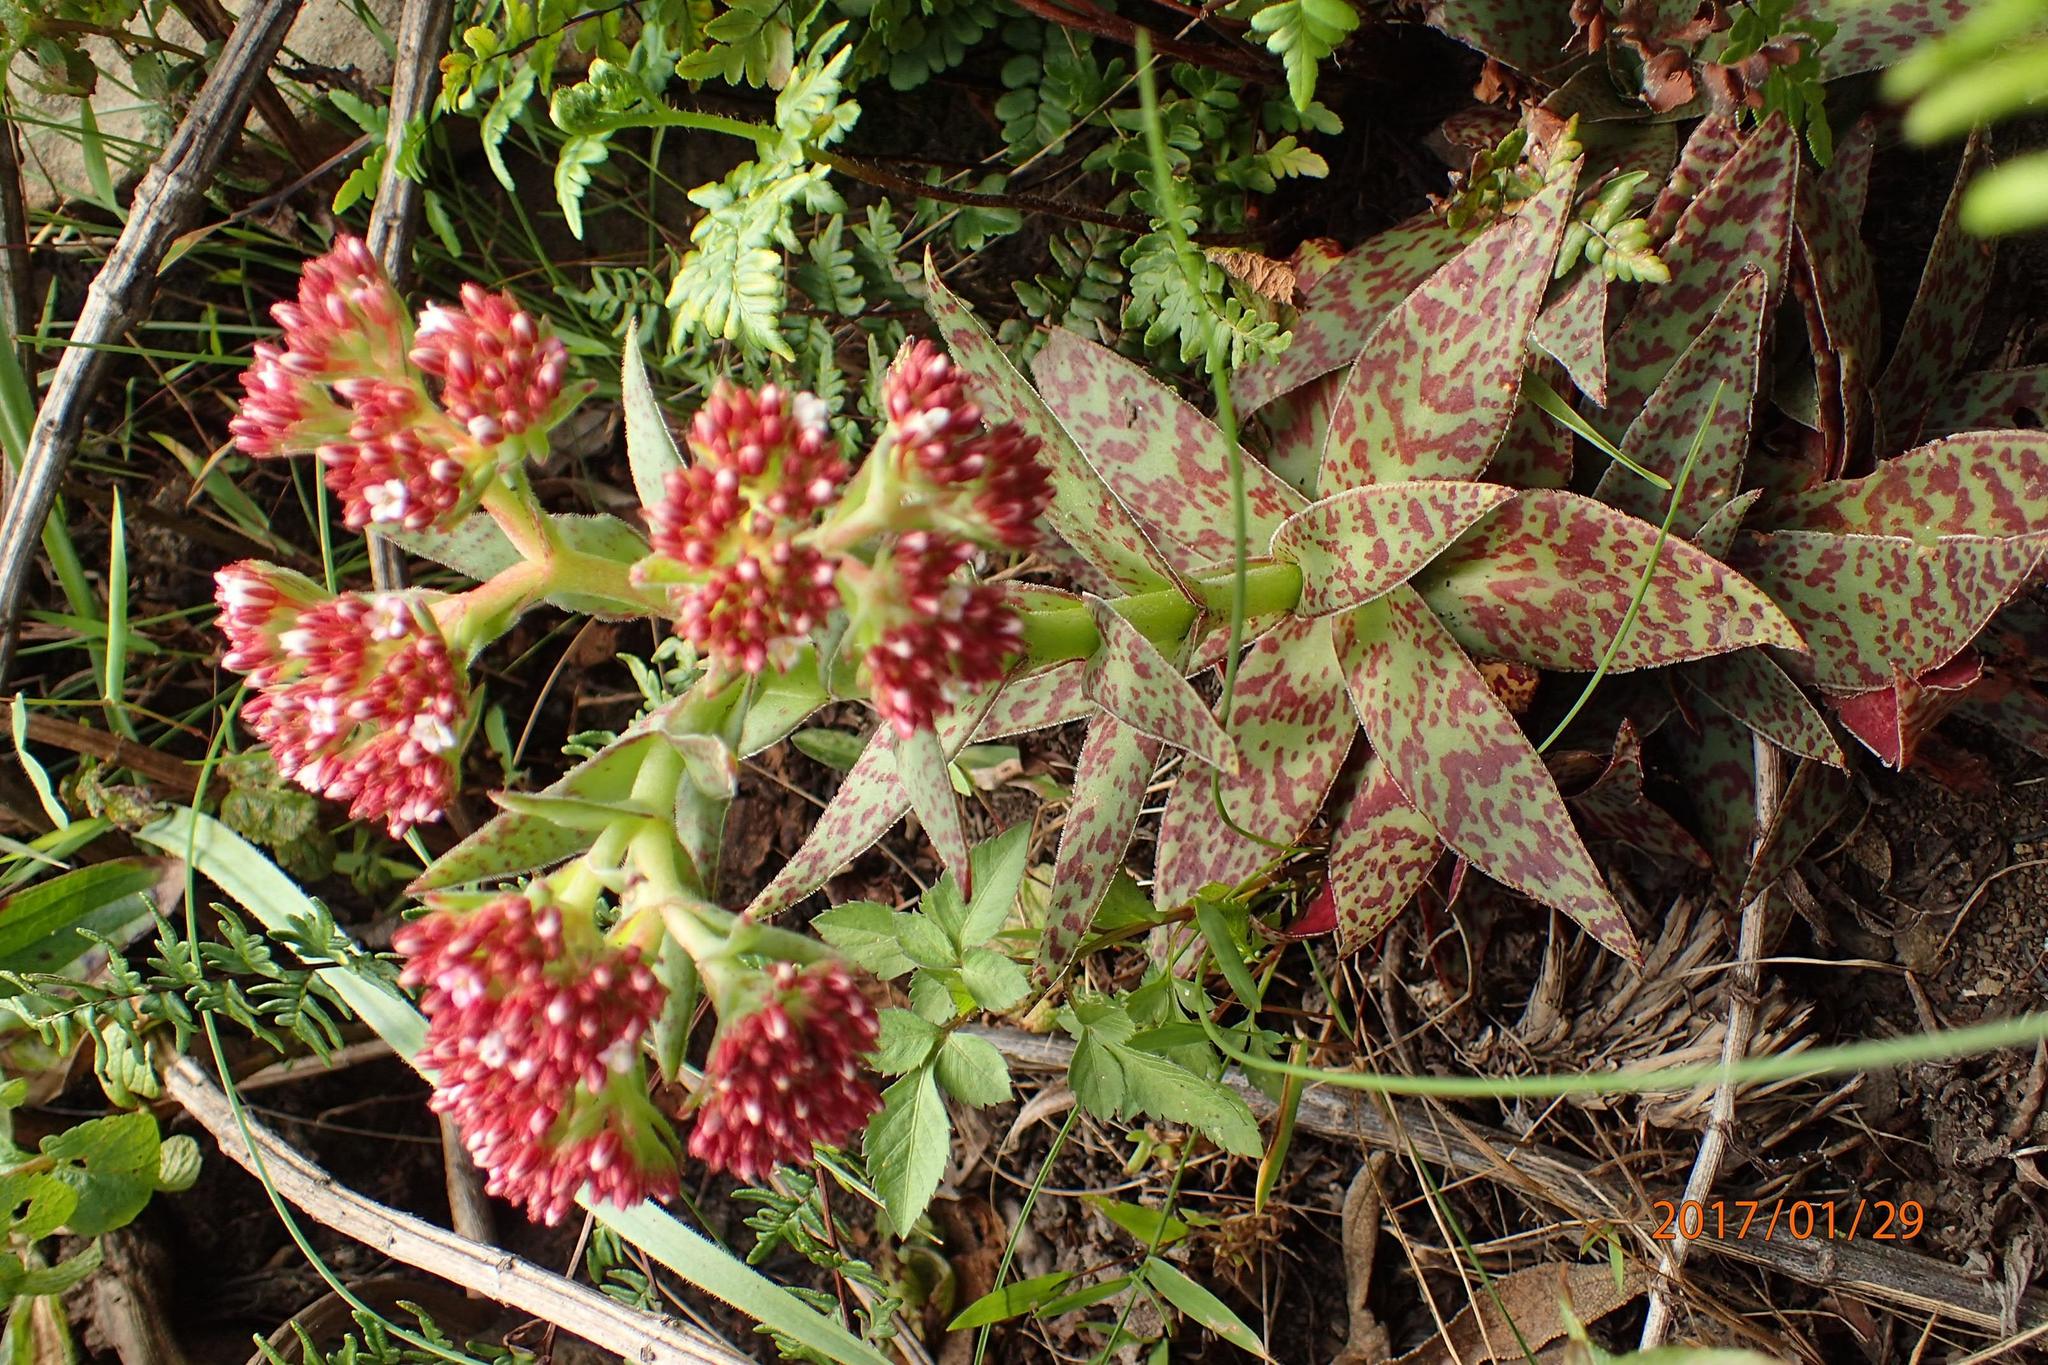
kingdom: Plantae
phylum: Tracheophyta
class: Magnoliopsida
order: Saxifragales
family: Crassulaceae
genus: Crassula
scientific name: Crassula alba
